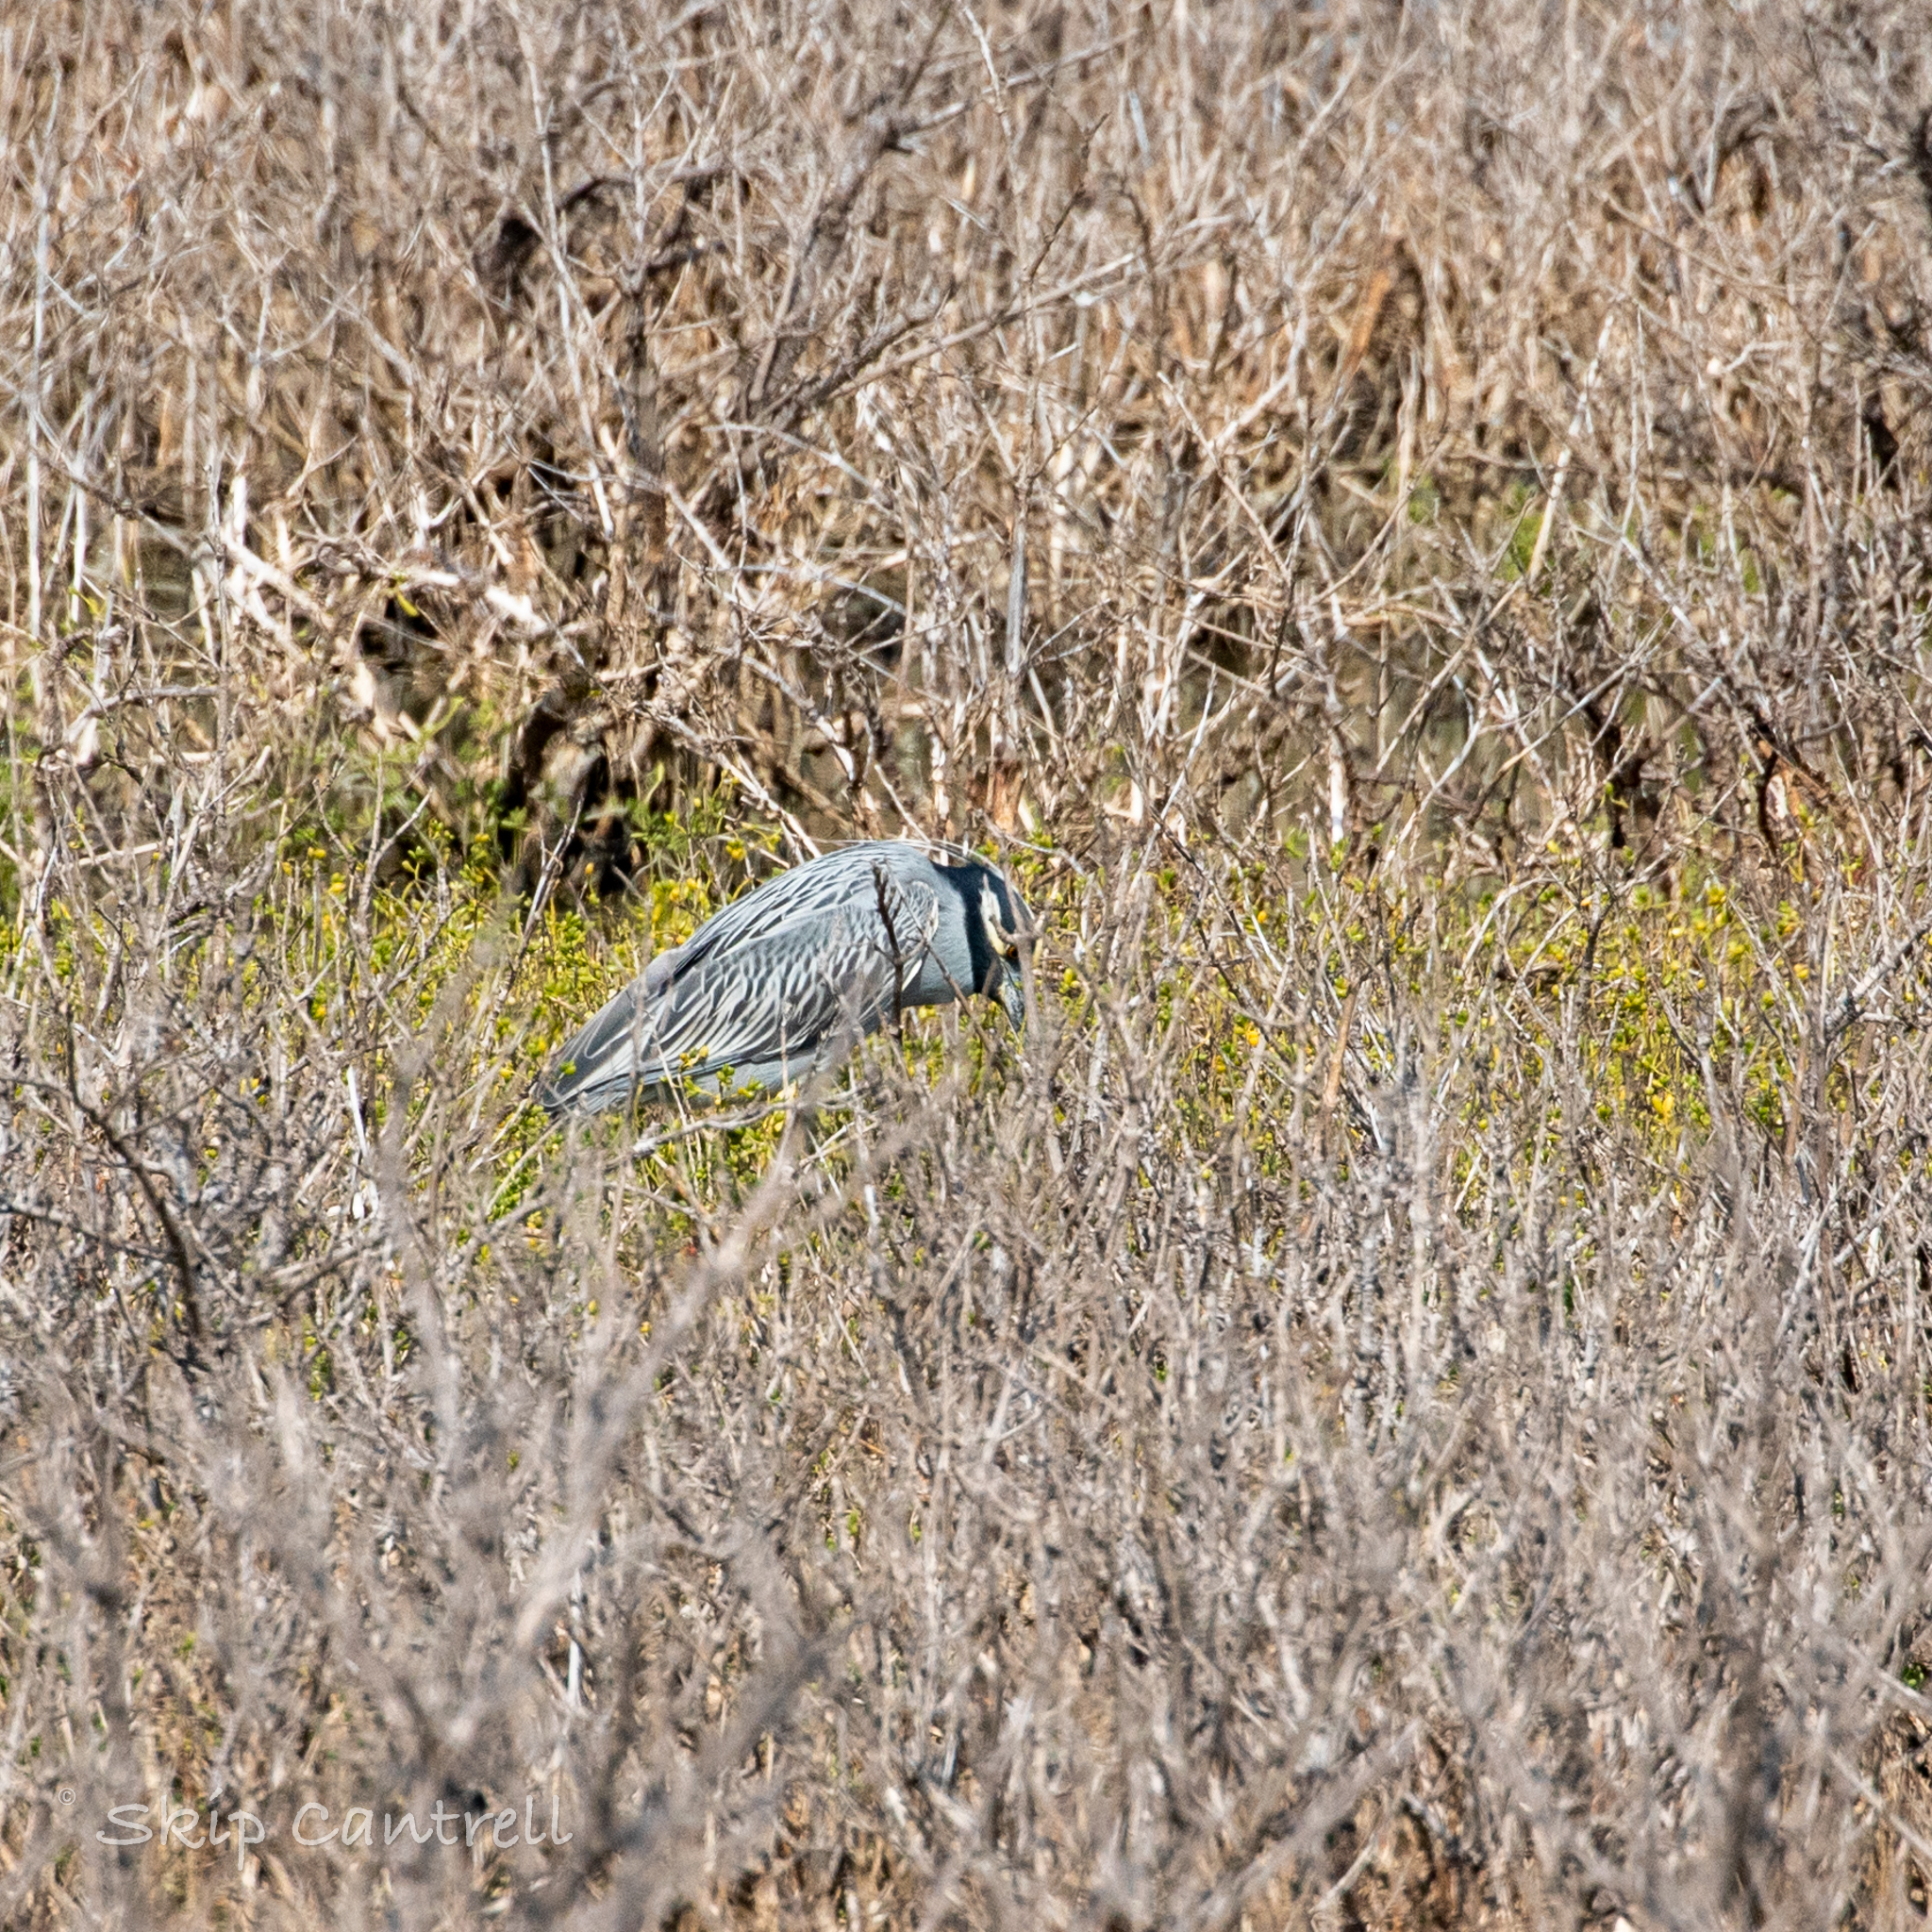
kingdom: Animalia
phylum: Chordata
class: Aves
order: Pelecaniformes
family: Ardeidae
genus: Nyctanassa
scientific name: Nyctanassa violacea
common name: Yellow-crowned night heron
